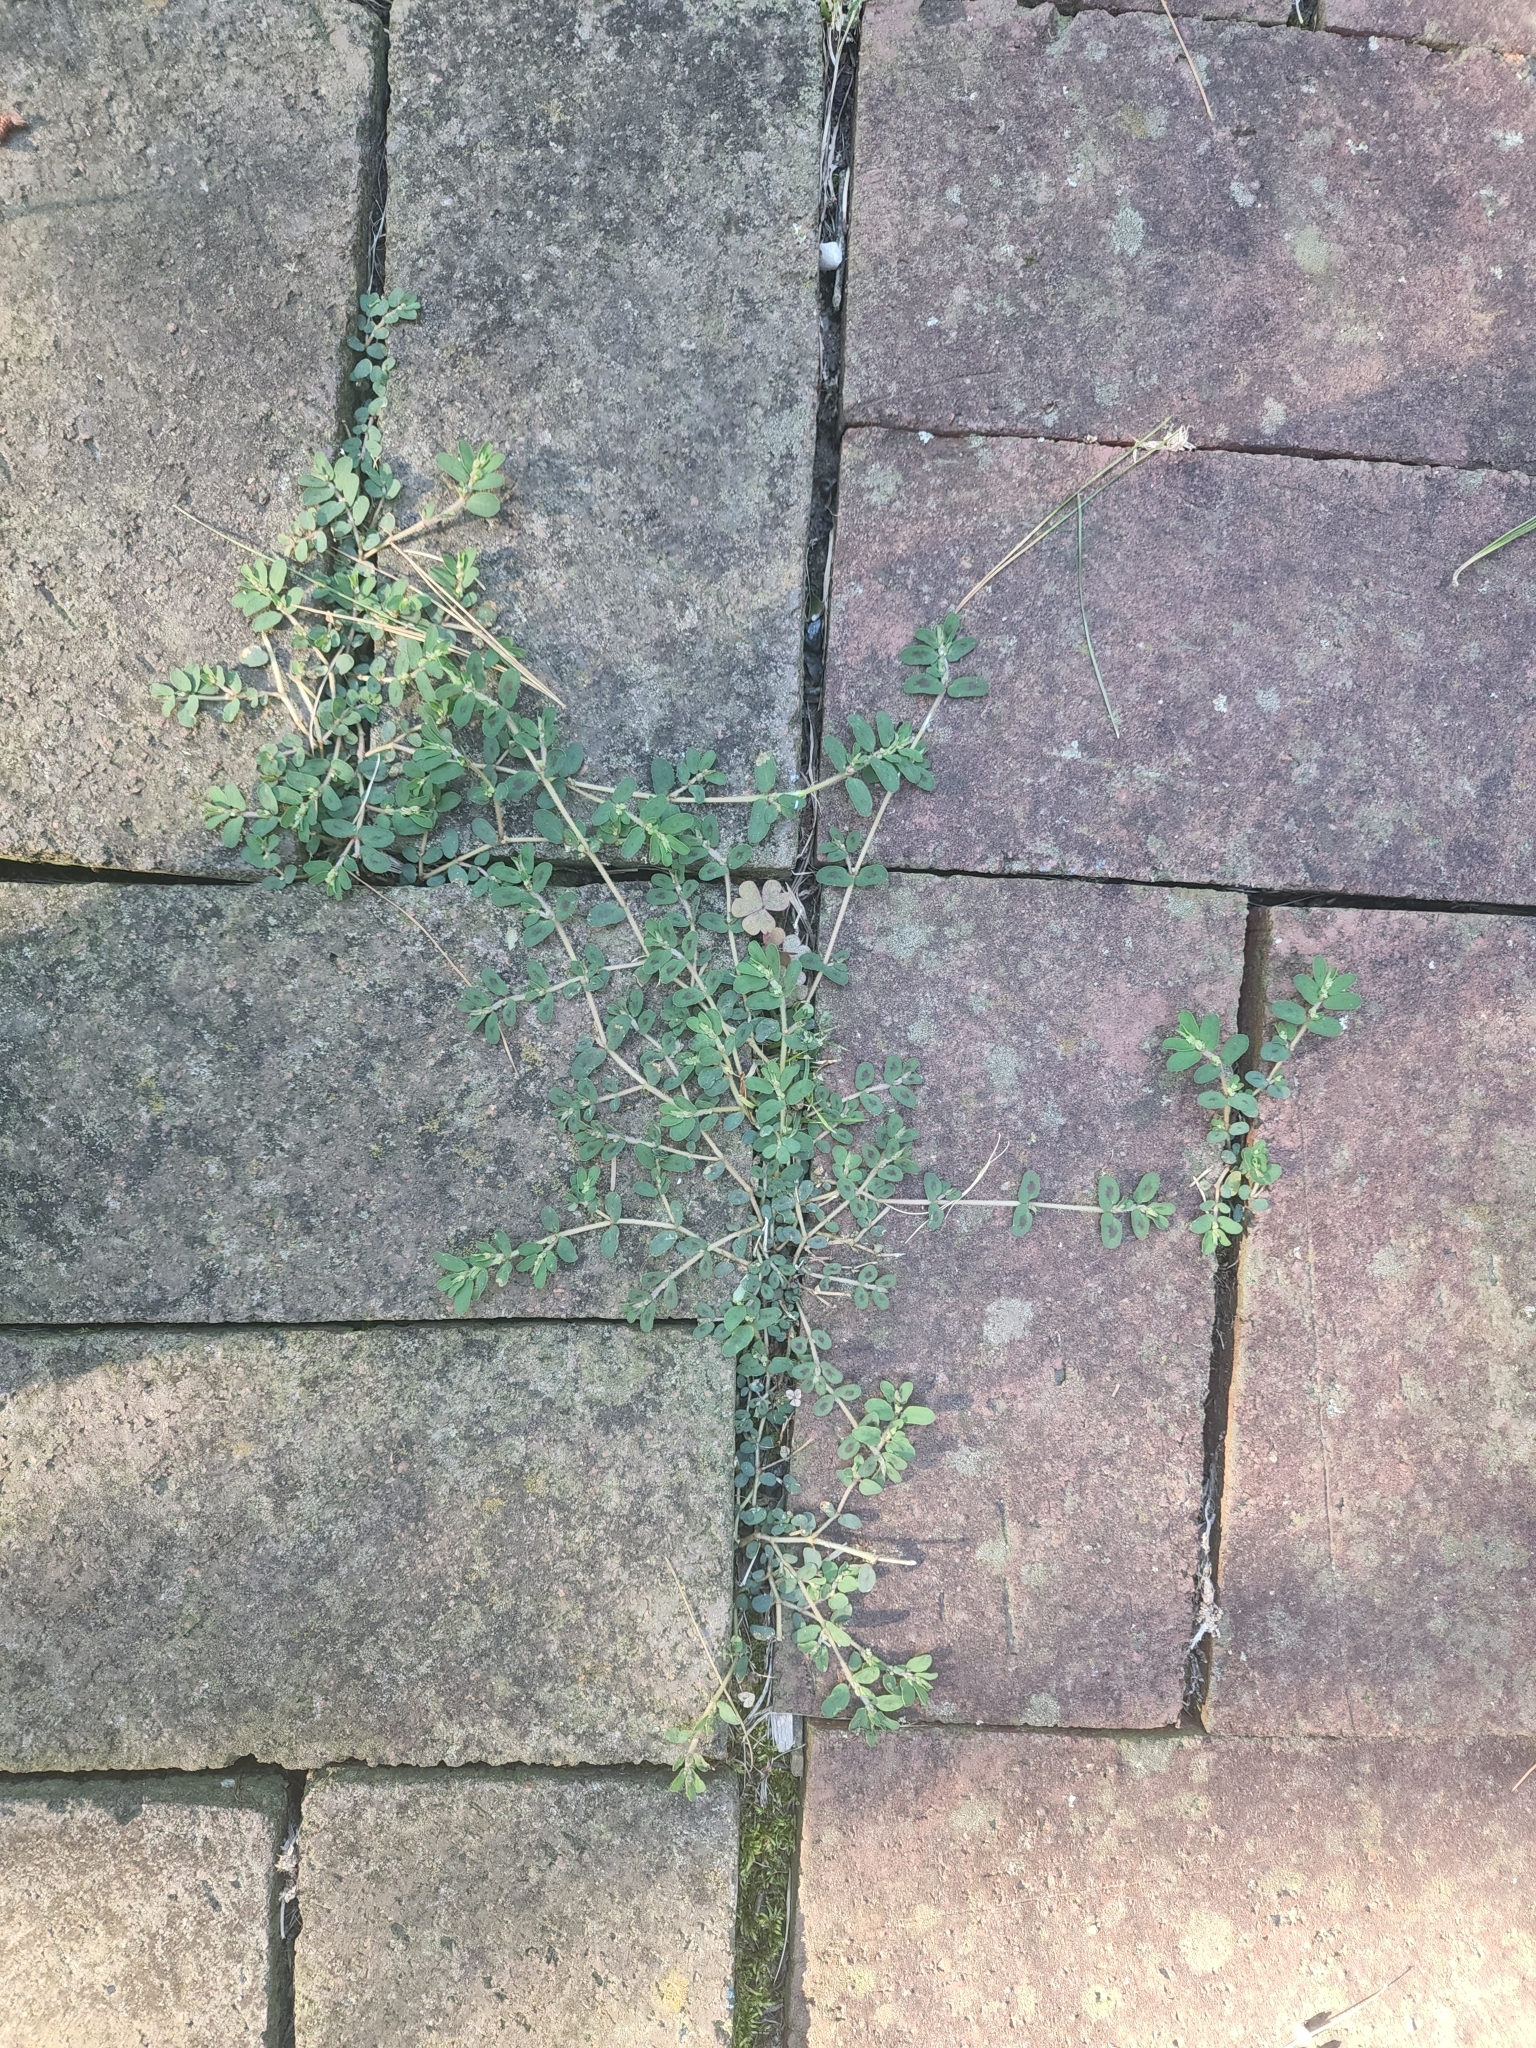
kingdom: Plantae
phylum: Tracheophyta
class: Magnoliopsida
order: Malpighiales
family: Euphorbiaceae
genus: Euphorbia
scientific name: Euphorbia prostrata
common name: Prostrate sandmat
